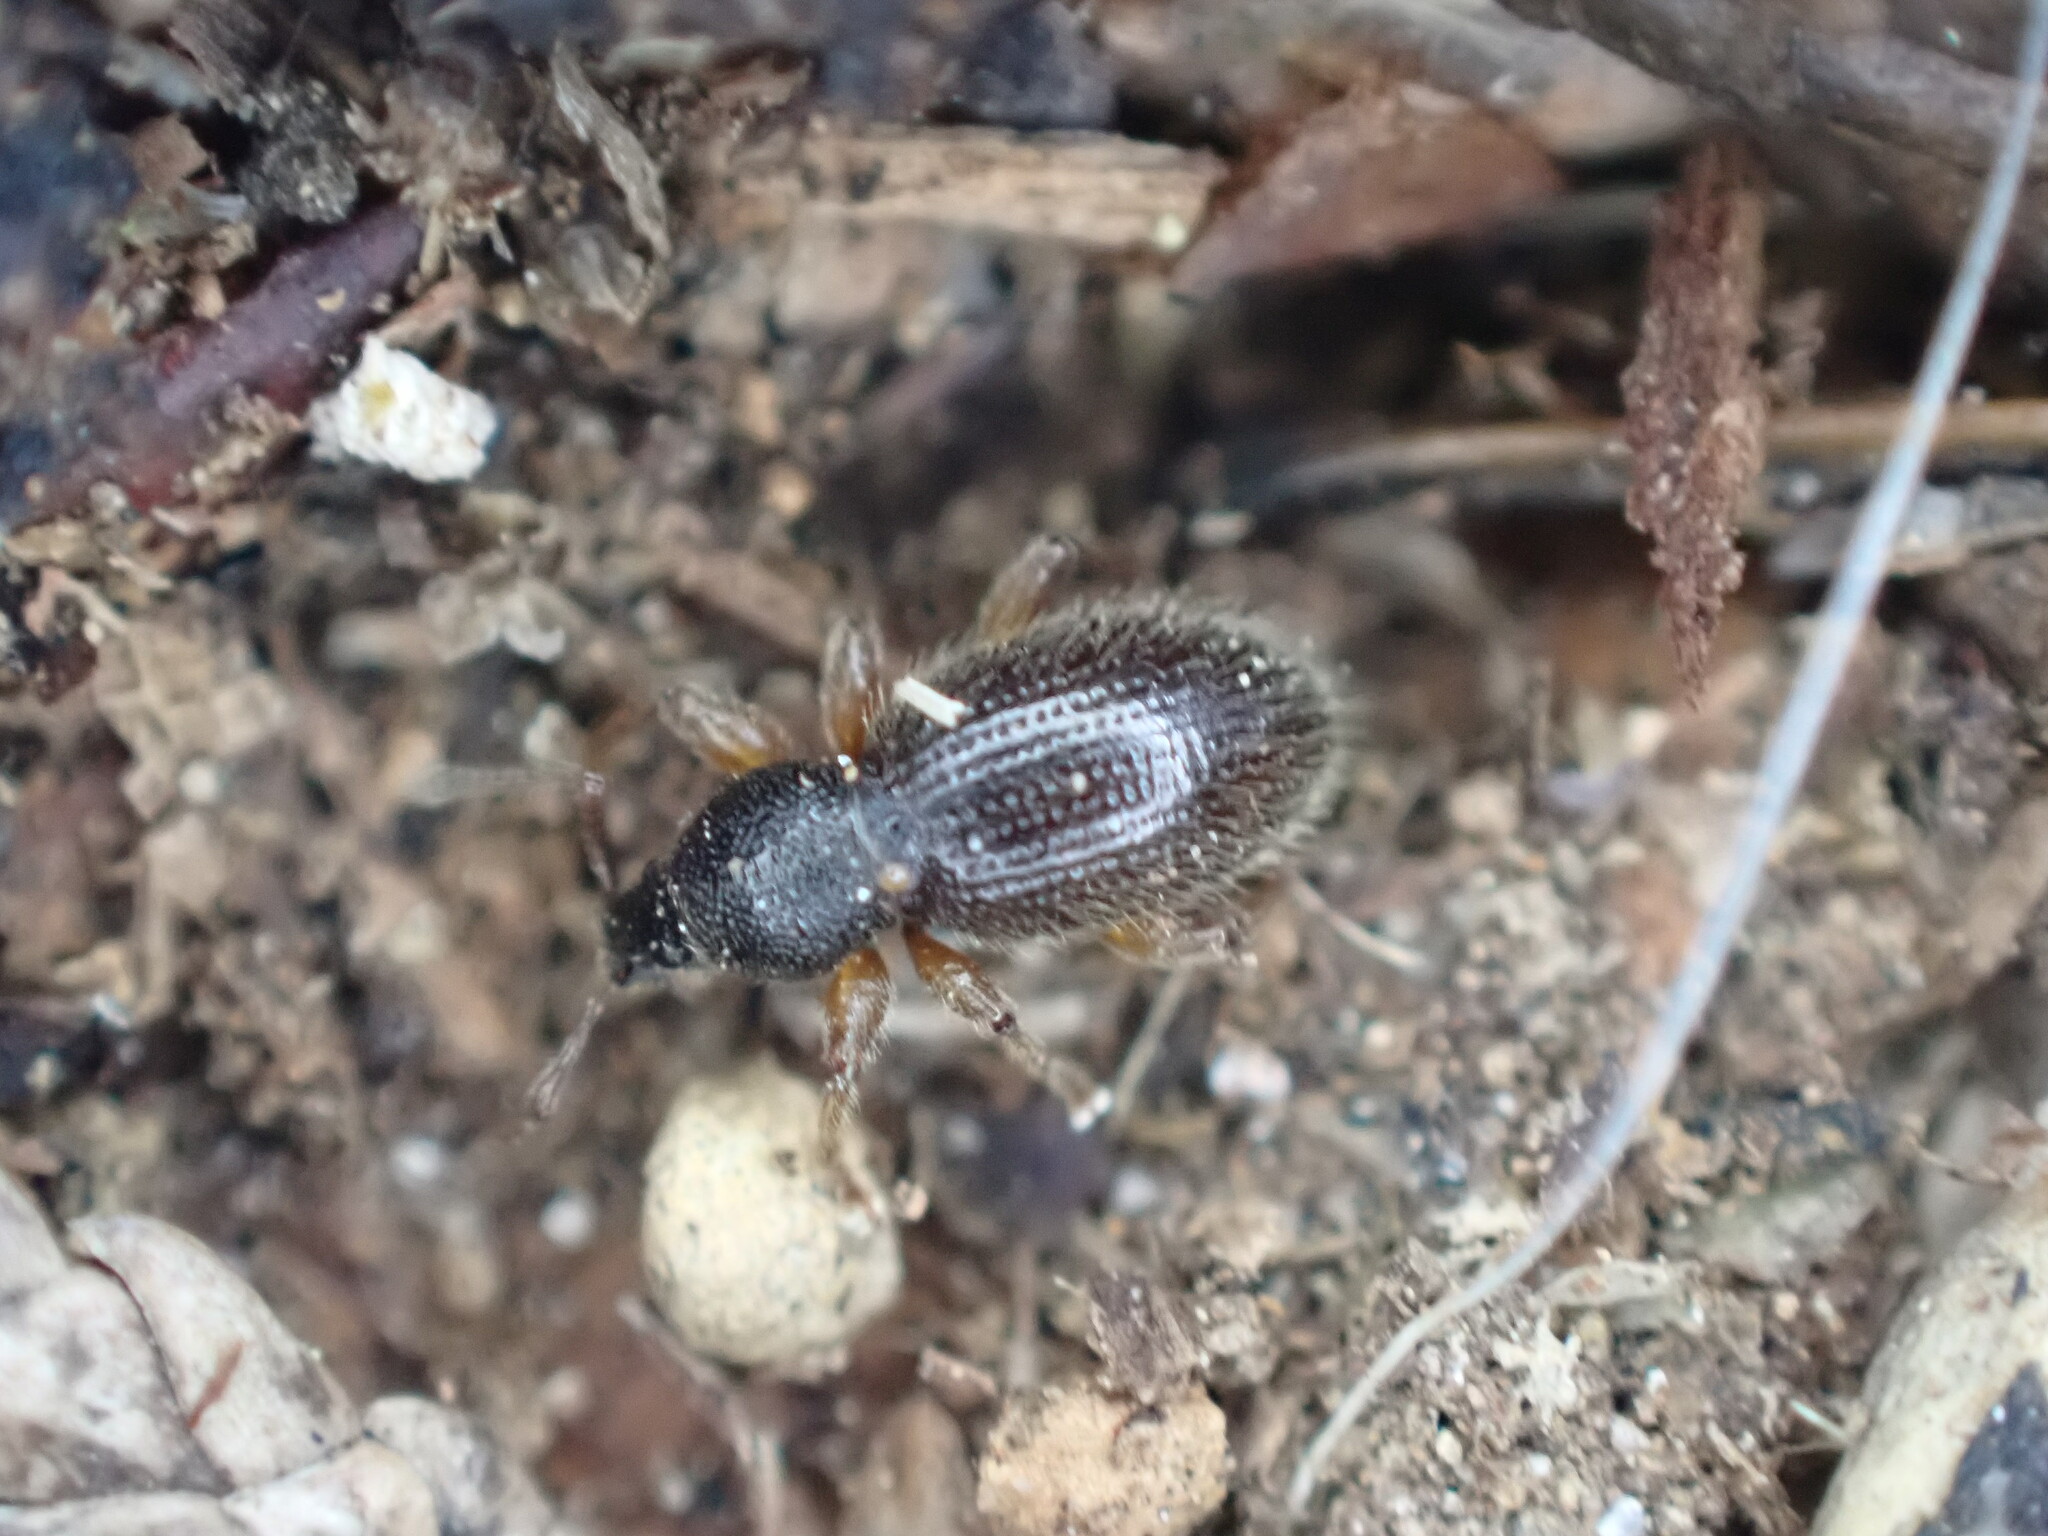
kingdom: Animalia
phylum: Arthropoda
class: Insecta
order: Coleoptera
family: Curculionidae
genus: Exomias
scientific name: Exomias pellucidus
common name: Hairy spider weevil
